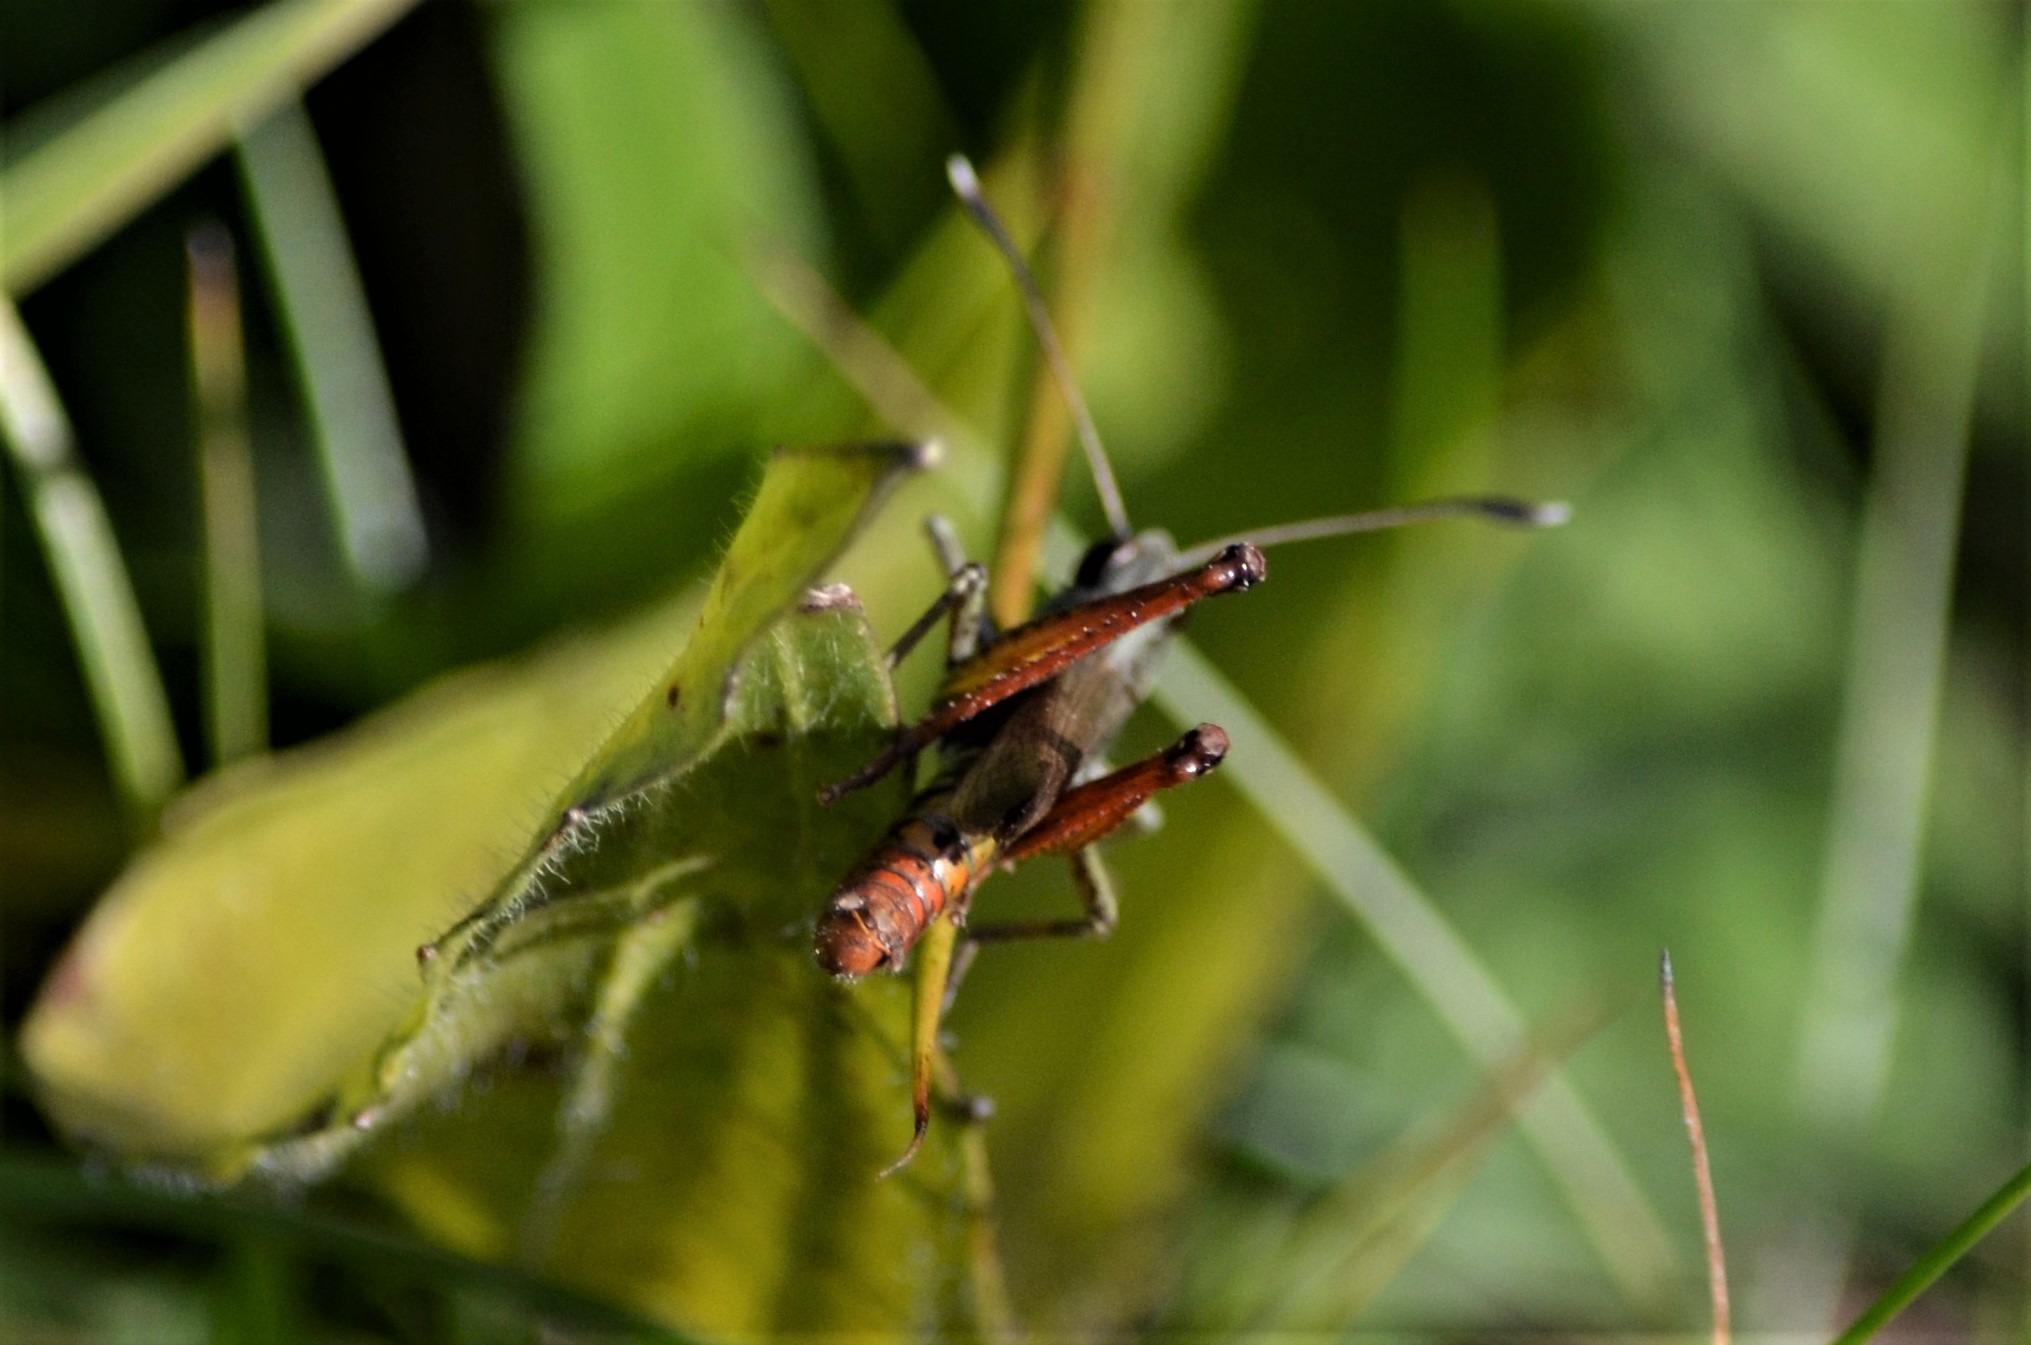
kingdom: Animalia
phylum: Arthropoda
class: Insecta
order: Orthoptera
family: Acrididae
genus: Gomphocerippus
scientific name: Gomphocerippus rufus
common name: Rufous grasshopper
